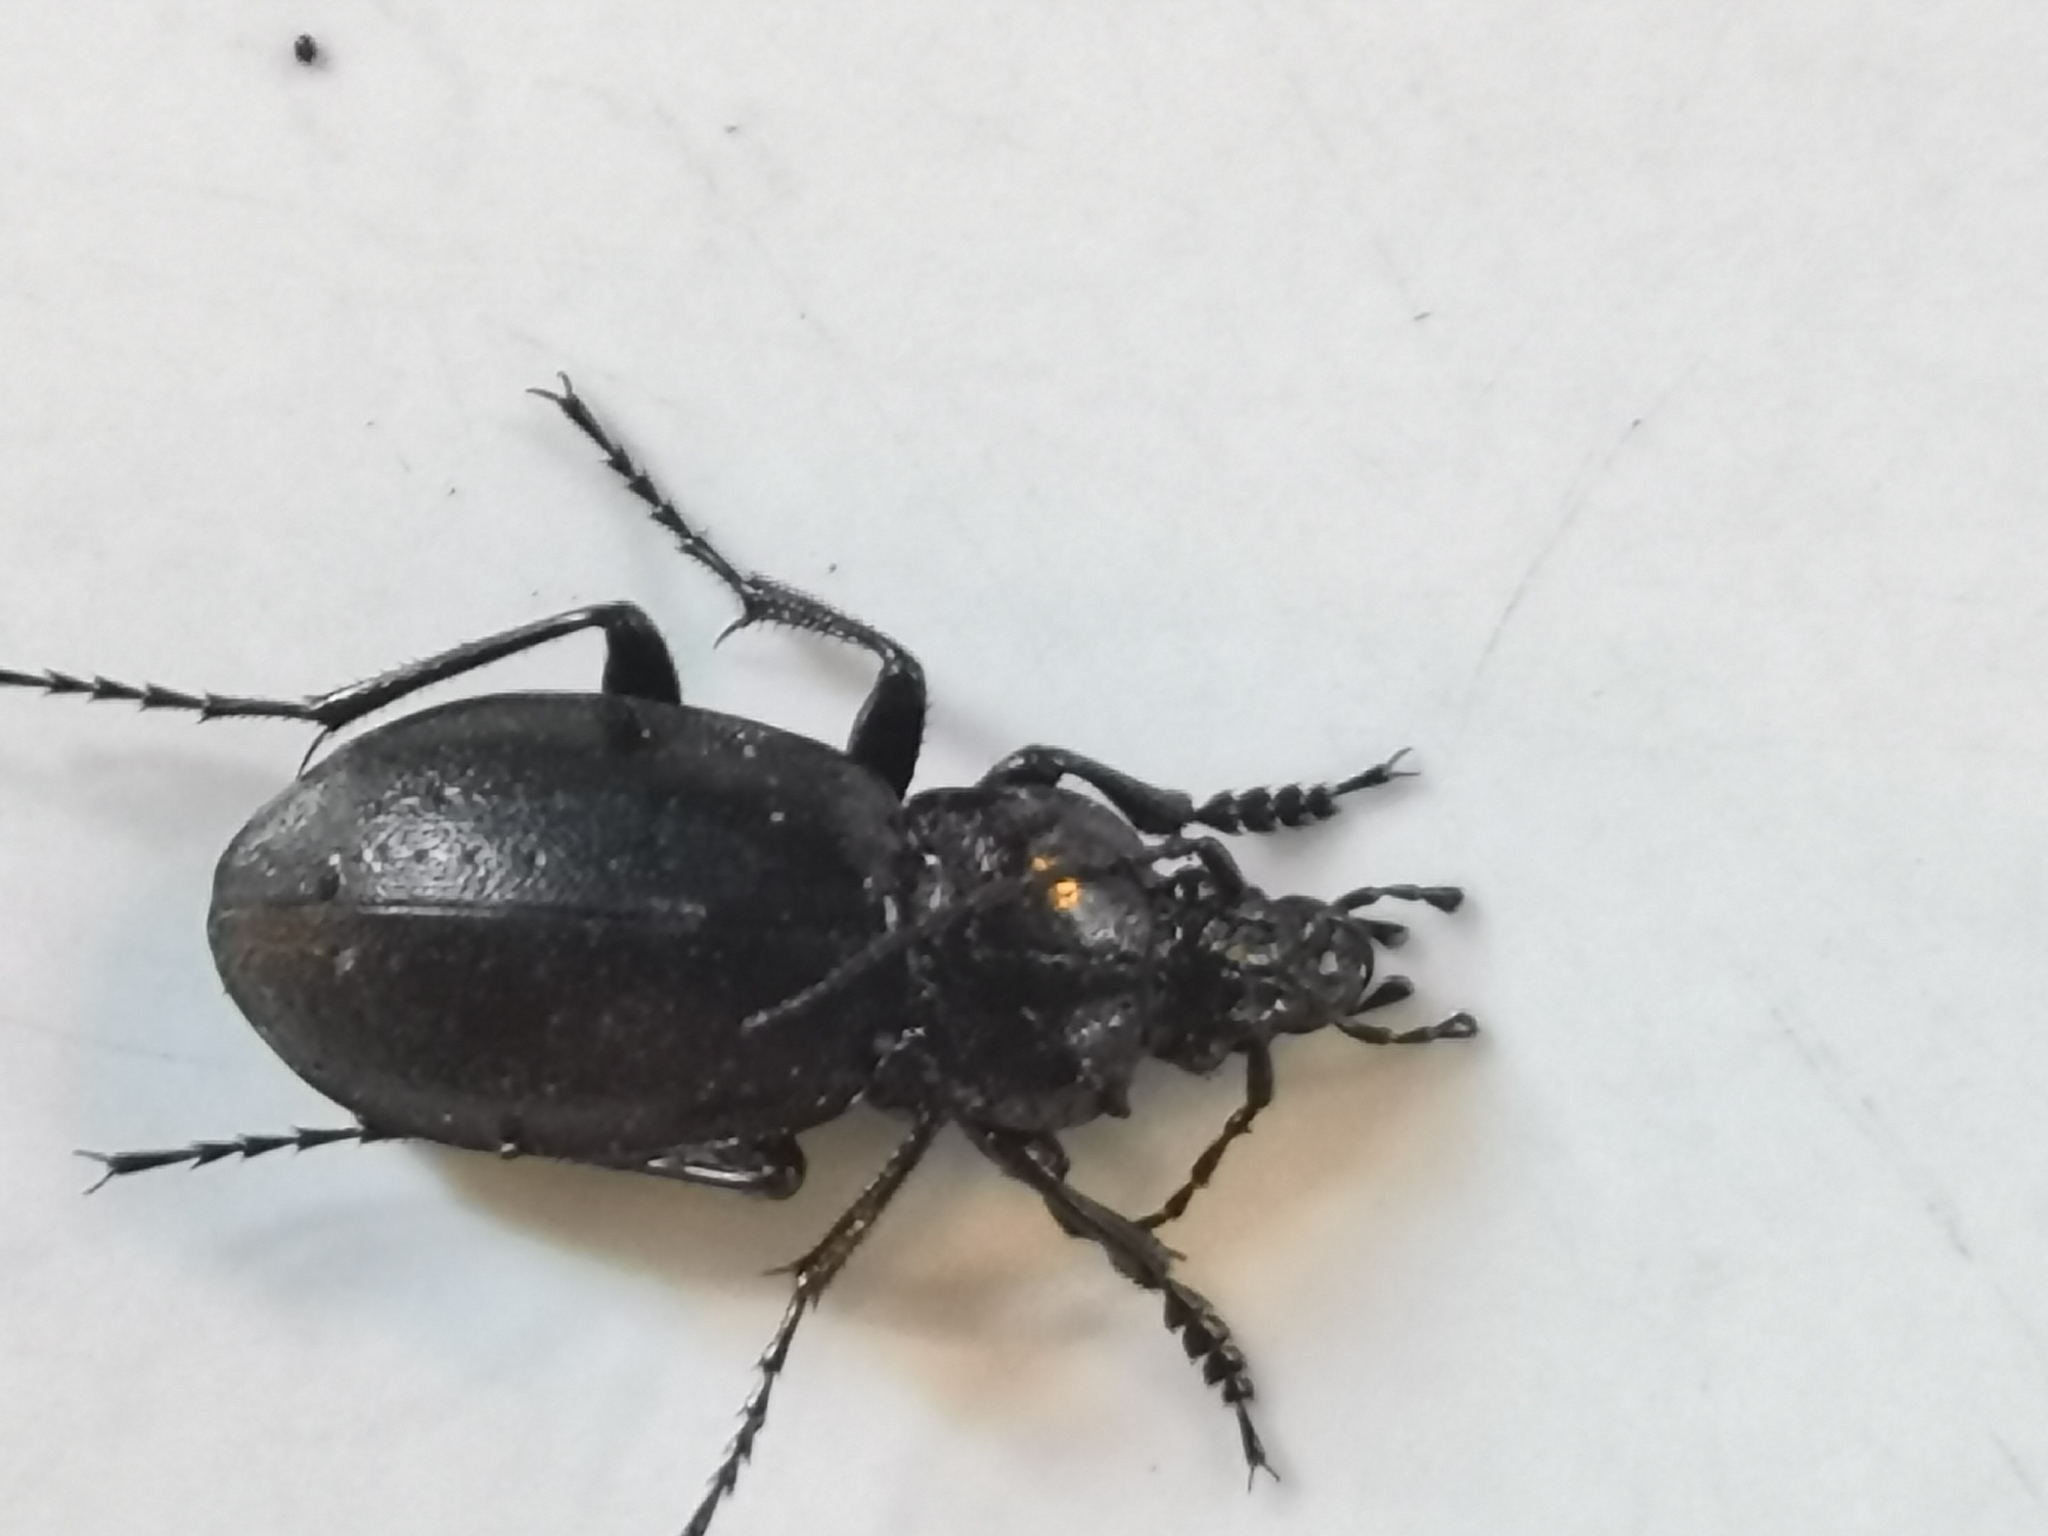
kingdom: Animalia
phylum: Arthropoda
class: Insecta
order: Coleoptera
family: Carabidae
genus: Carabus
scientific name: Carabus nemoralis
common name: European ground beetle
